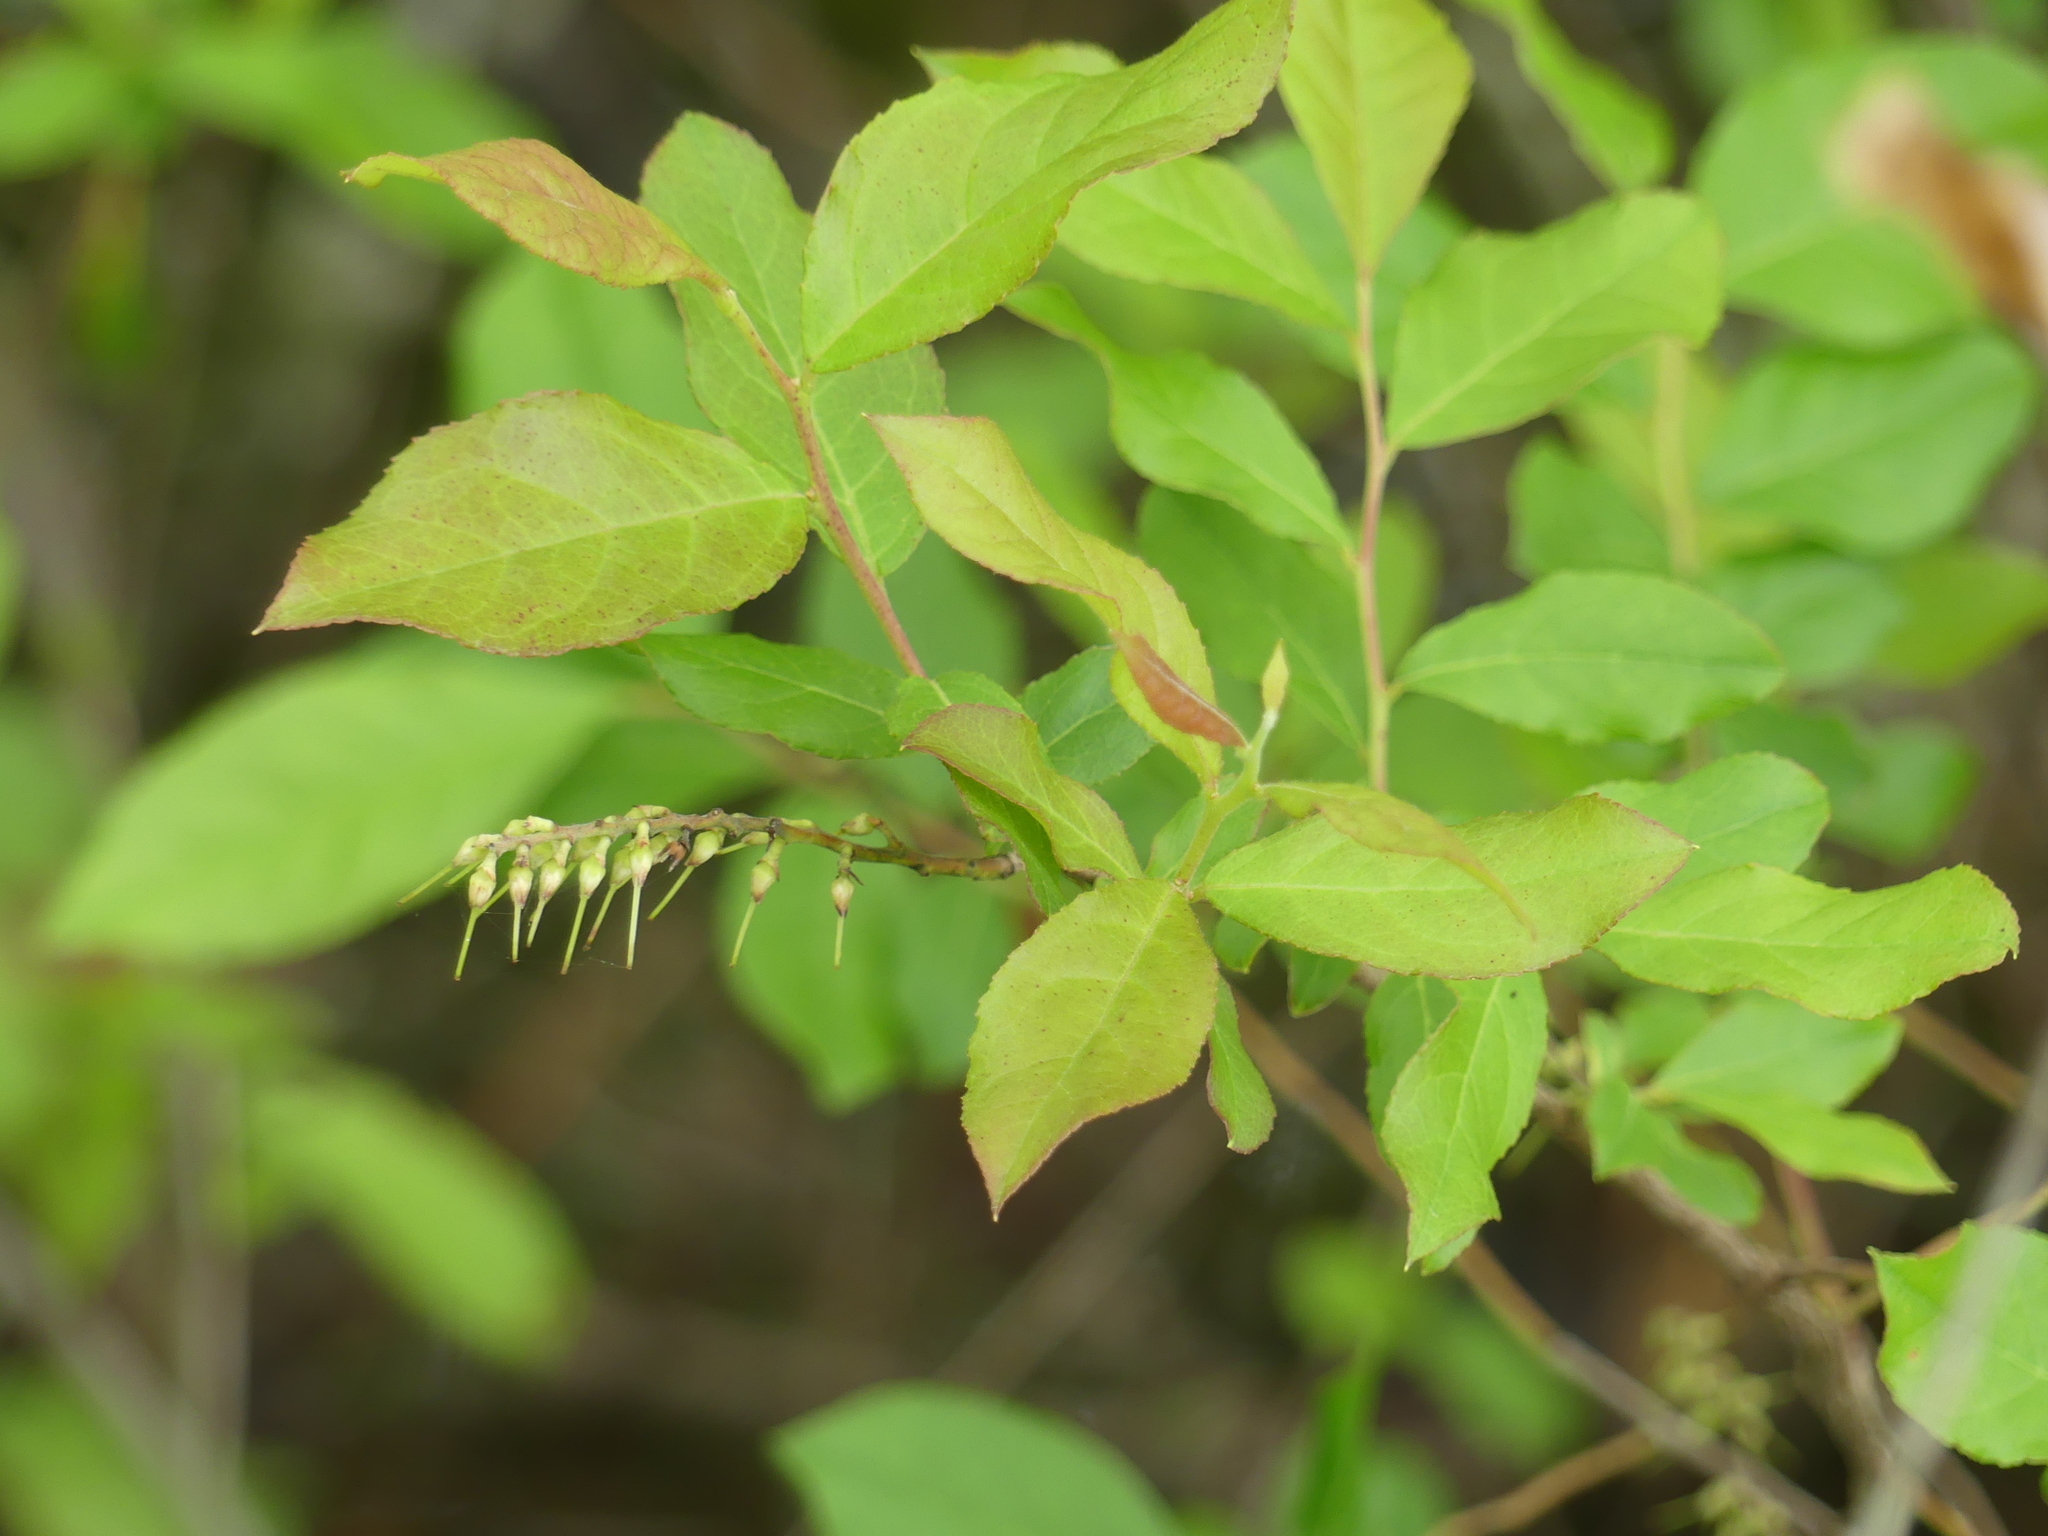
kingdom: Plantae
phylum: Tracheophyta
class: Magnoliopsida
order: Ericales
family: Ericaceae
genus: Eubotrys
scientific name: Eubotrys racemosa
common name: Fetterbush
